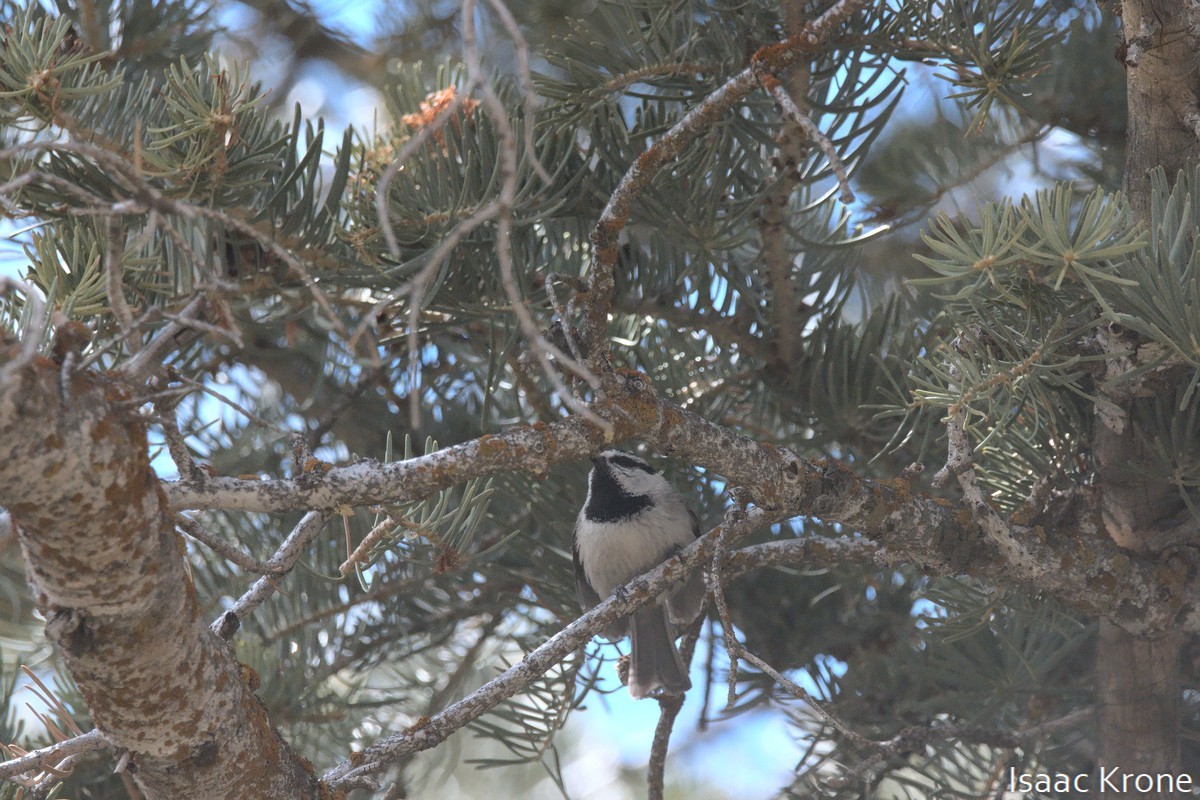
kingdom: Animalia
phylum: Chordata
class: Aves
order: Passeriformes
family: Paridae
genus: Poecile
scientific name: Poecile gambeli
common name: Mountain chickadee
